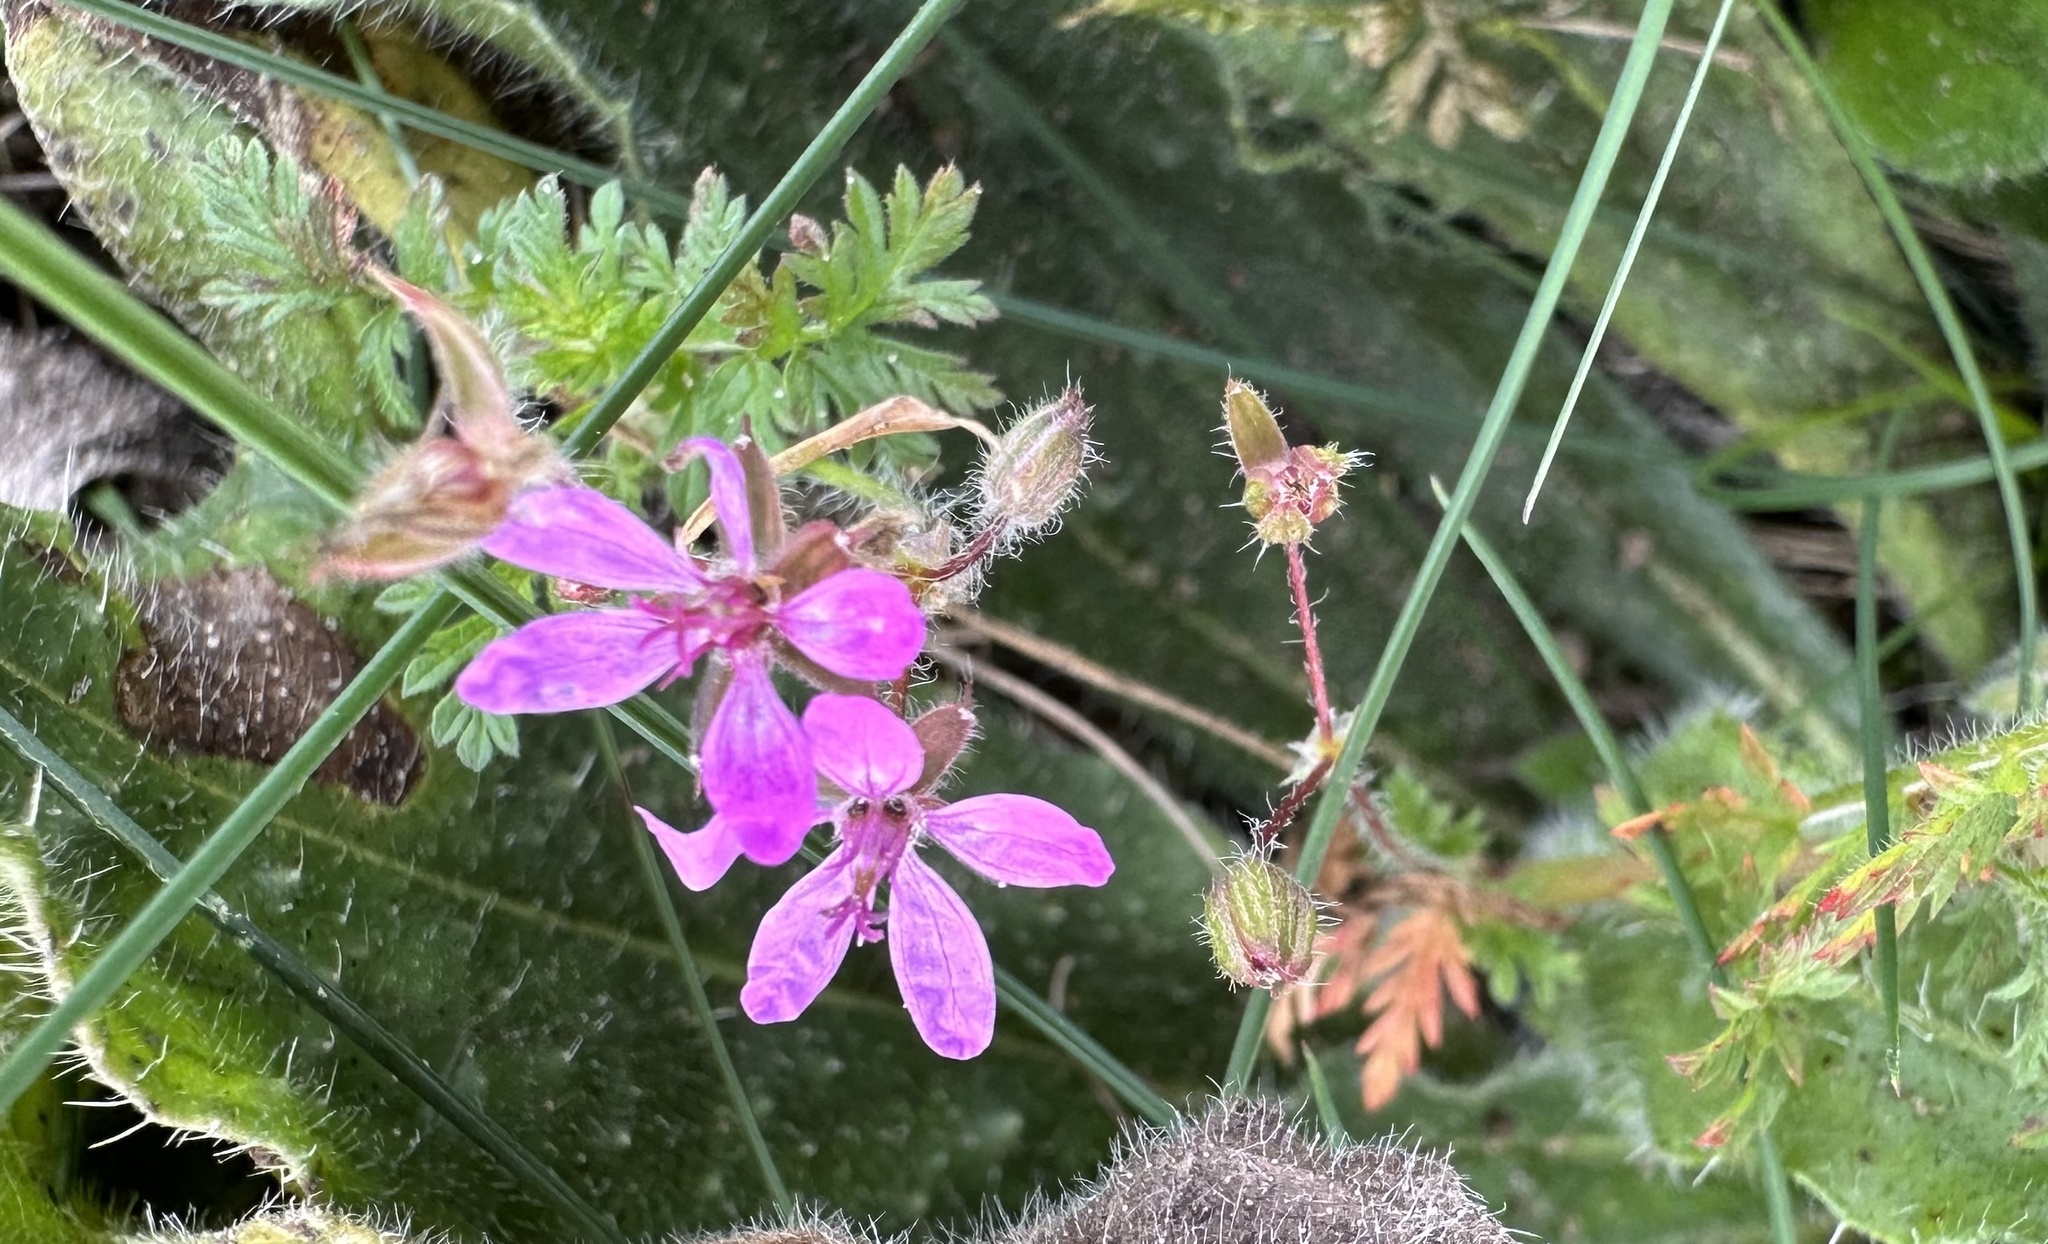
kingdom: Plantae
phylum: Tracheophyta
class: Magnoliopsida
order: Geraniales
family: Geraniaceae
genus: Erodium
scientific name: Erodium cicutarium
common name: Common stork's-bill
